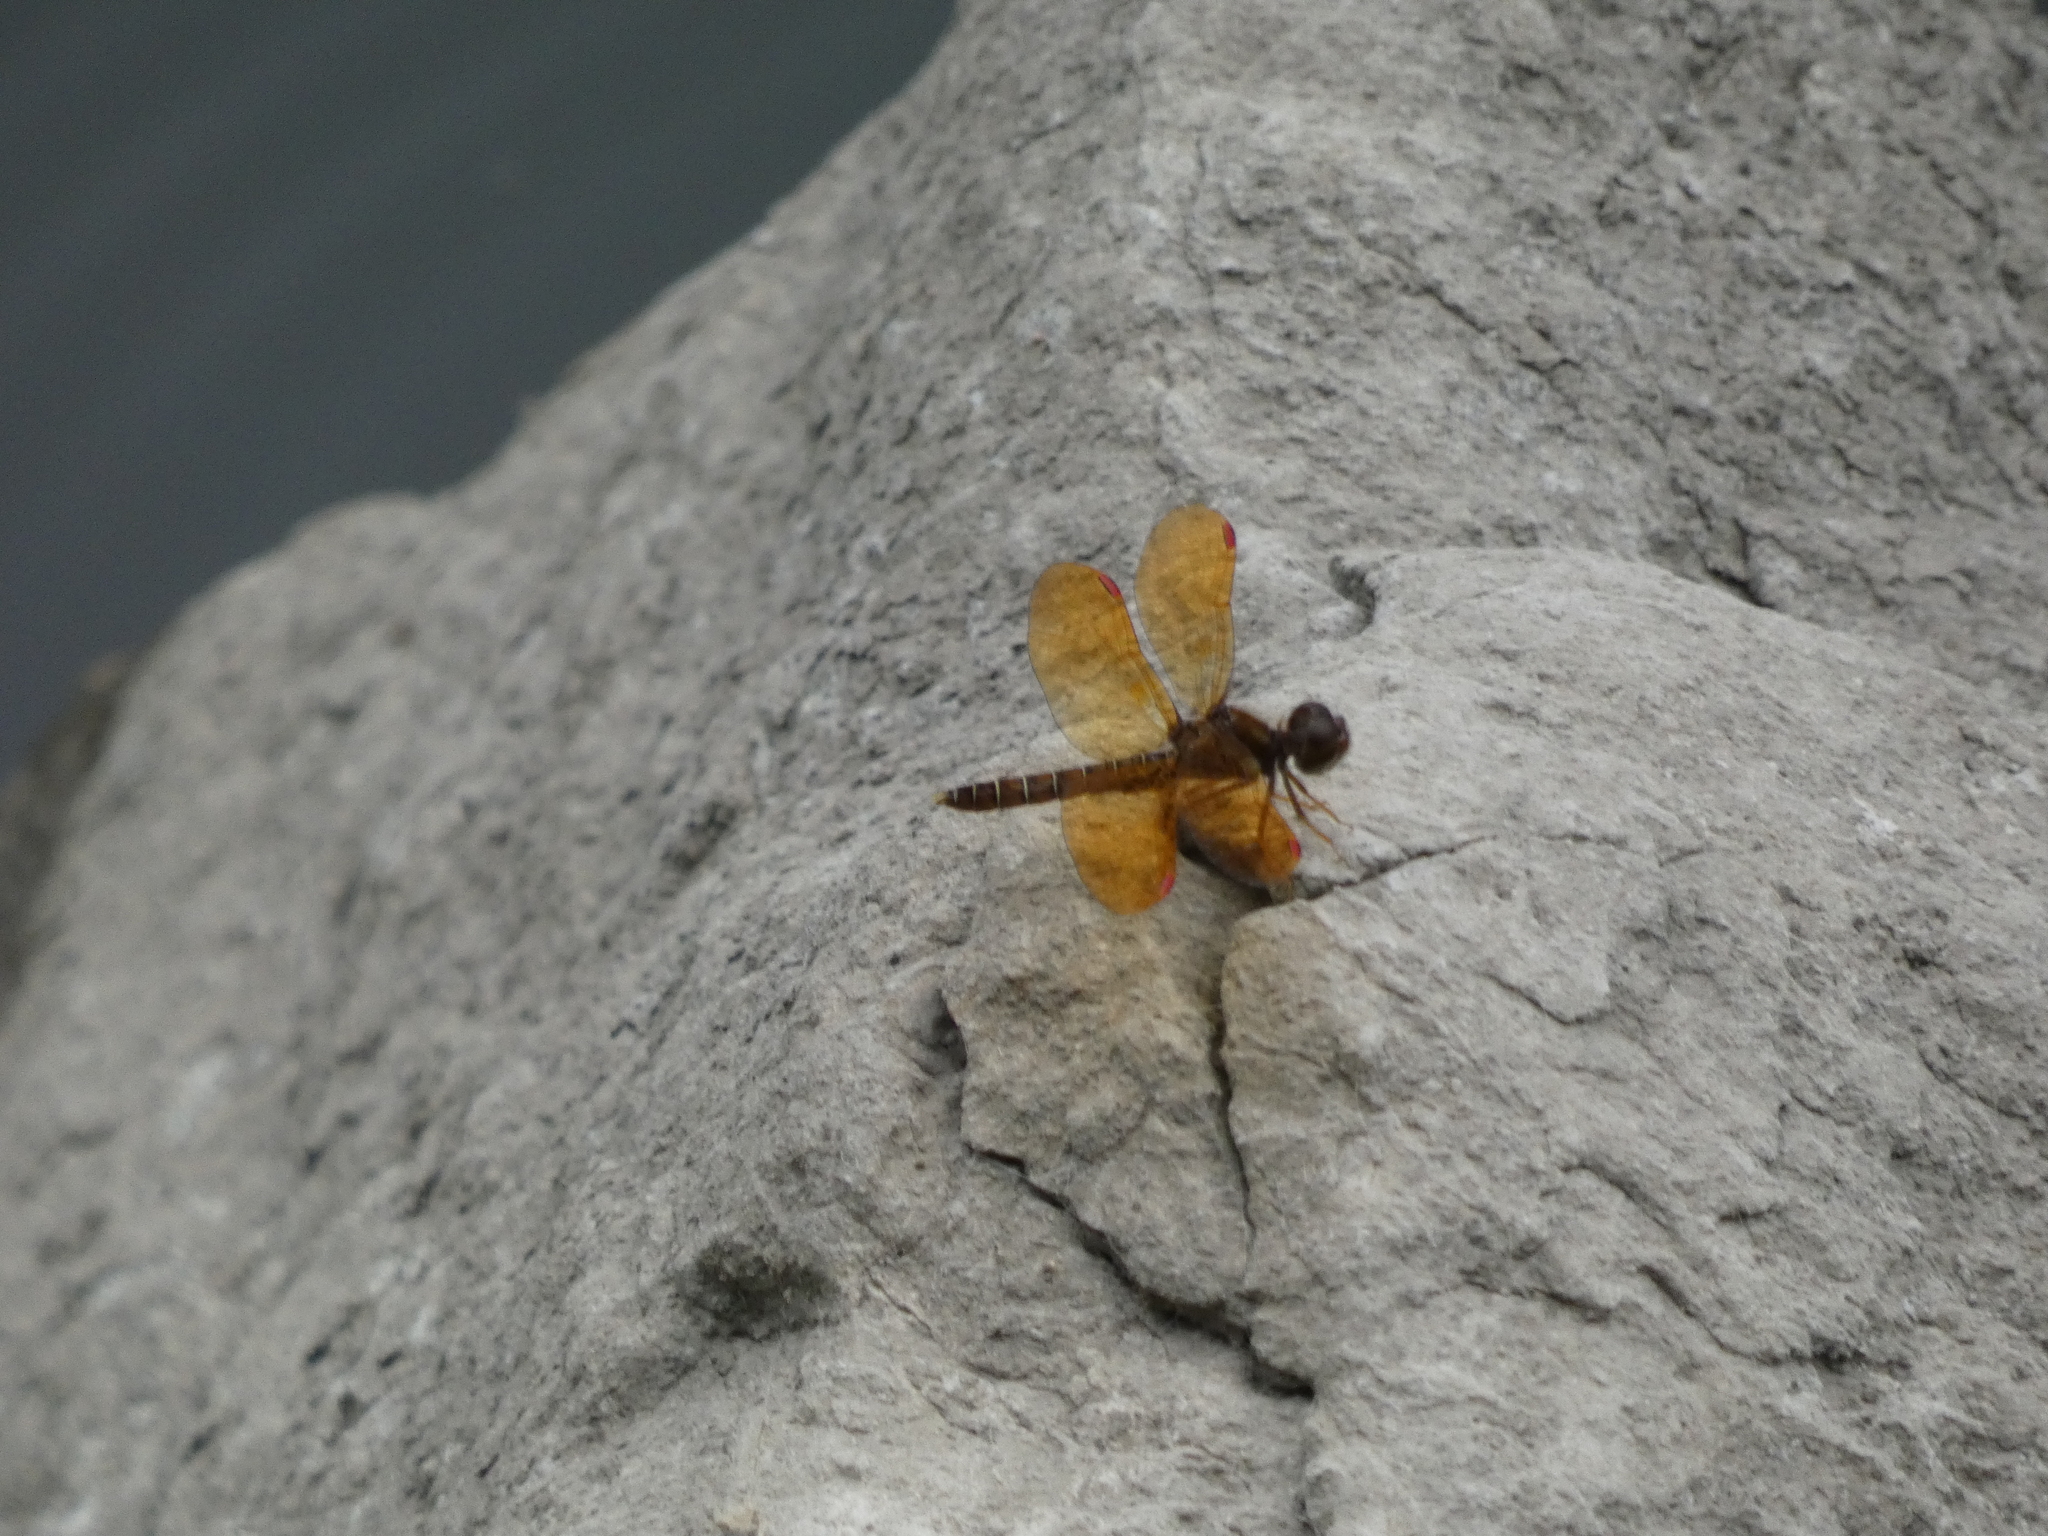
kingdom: Animalia
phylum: Arthropoda
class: Insecta
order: Odonata
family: Libellulidae
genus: Perithemis
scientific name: Perithemis tenera
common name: Eastern amberwing
